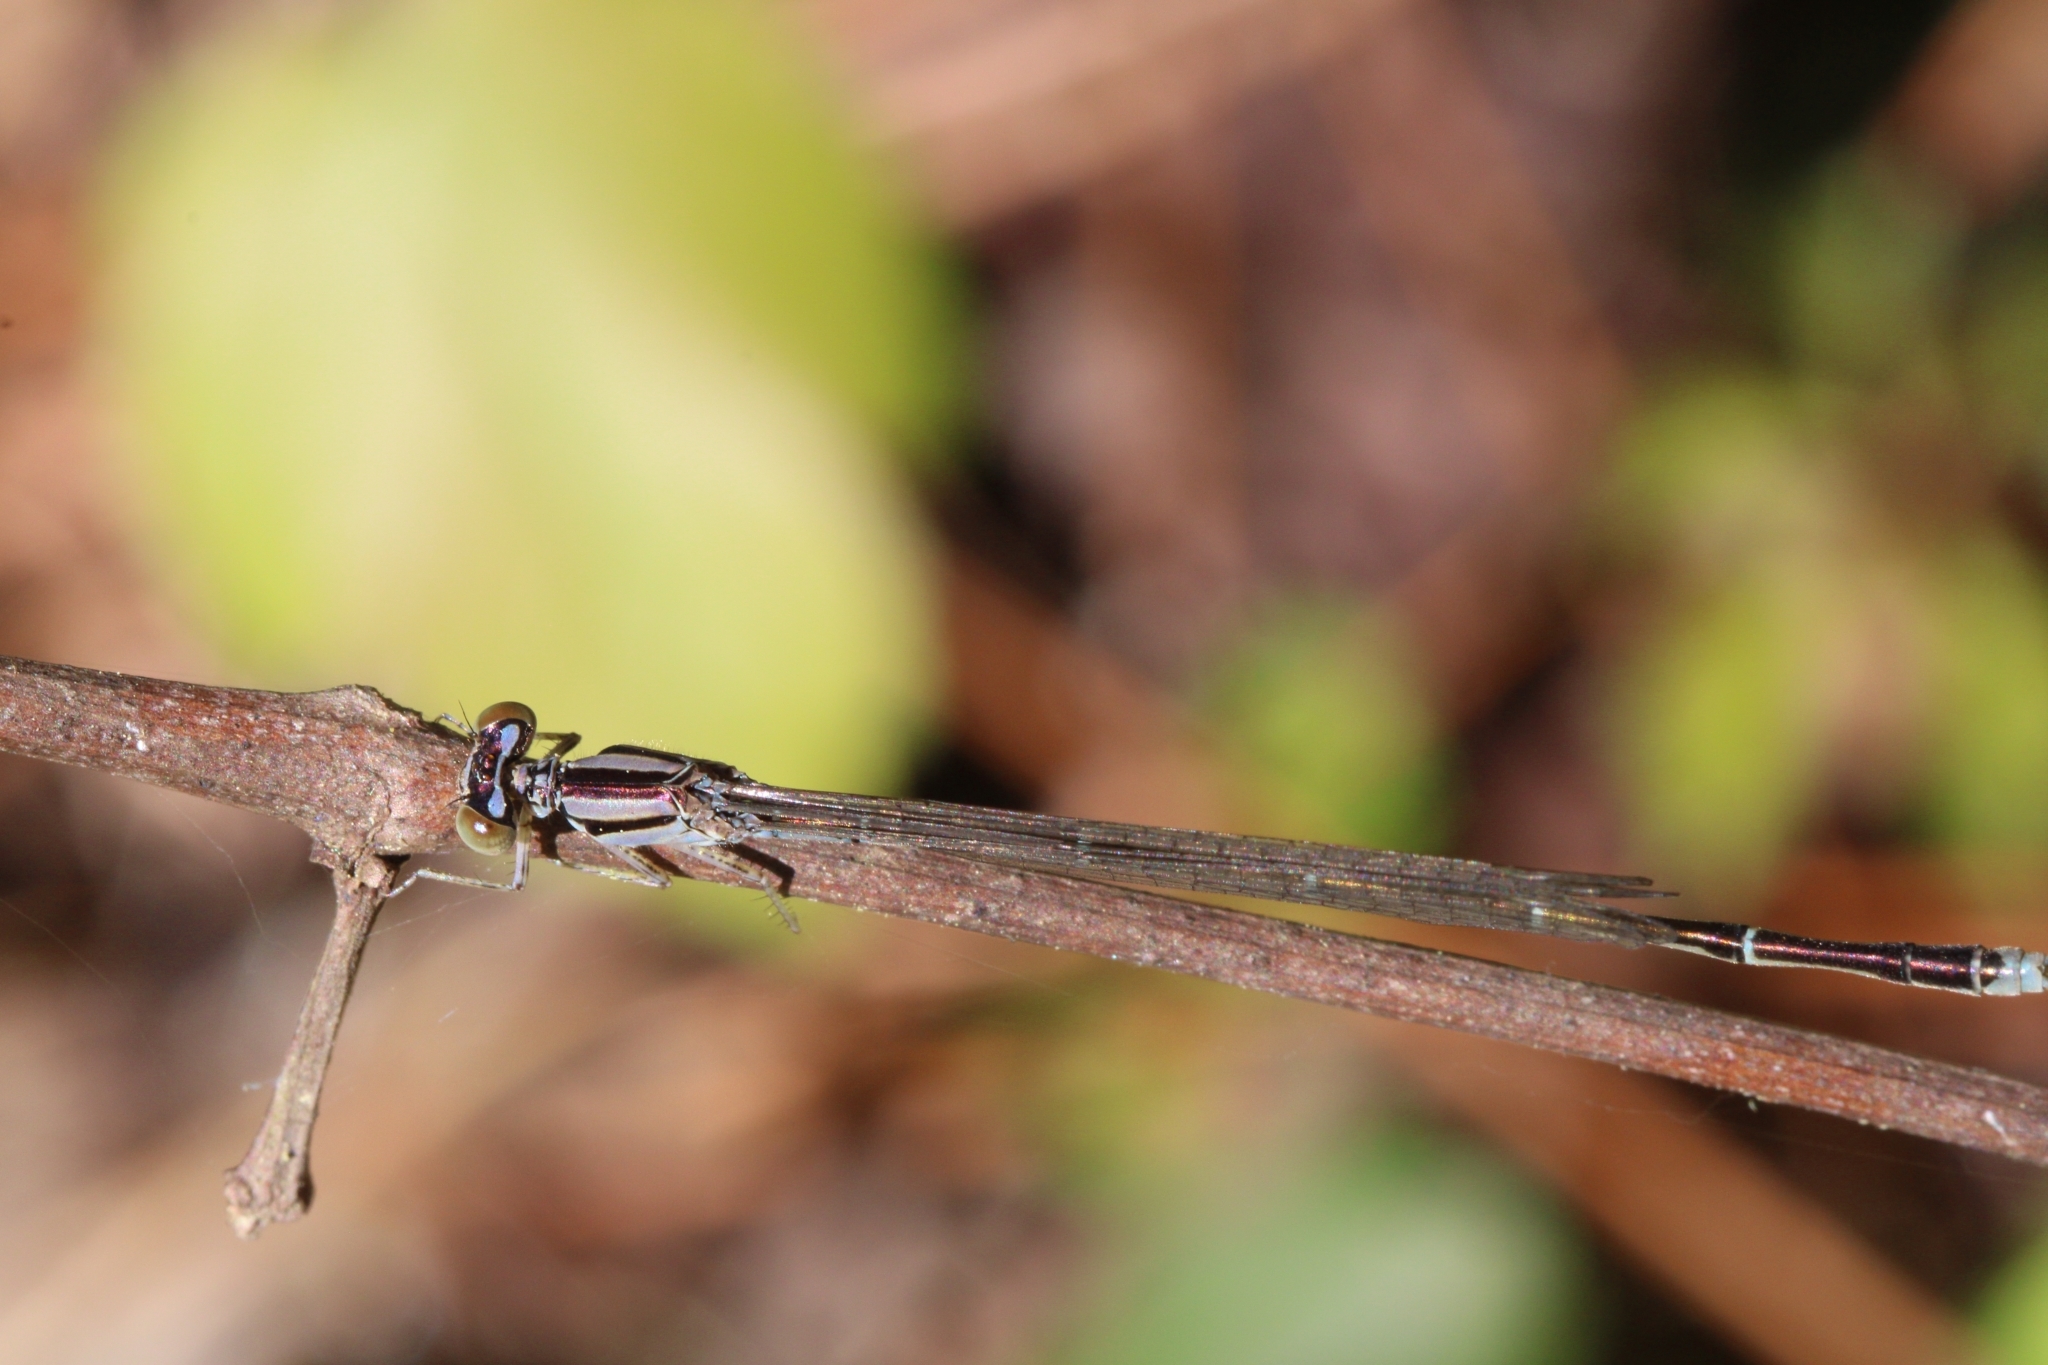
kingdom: Animalia
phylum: Arthropoda
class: Insecta
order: Odonata
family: Coenagrionidae
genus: Enallagma
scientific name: Enallagma signatum
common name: Orange bluet
